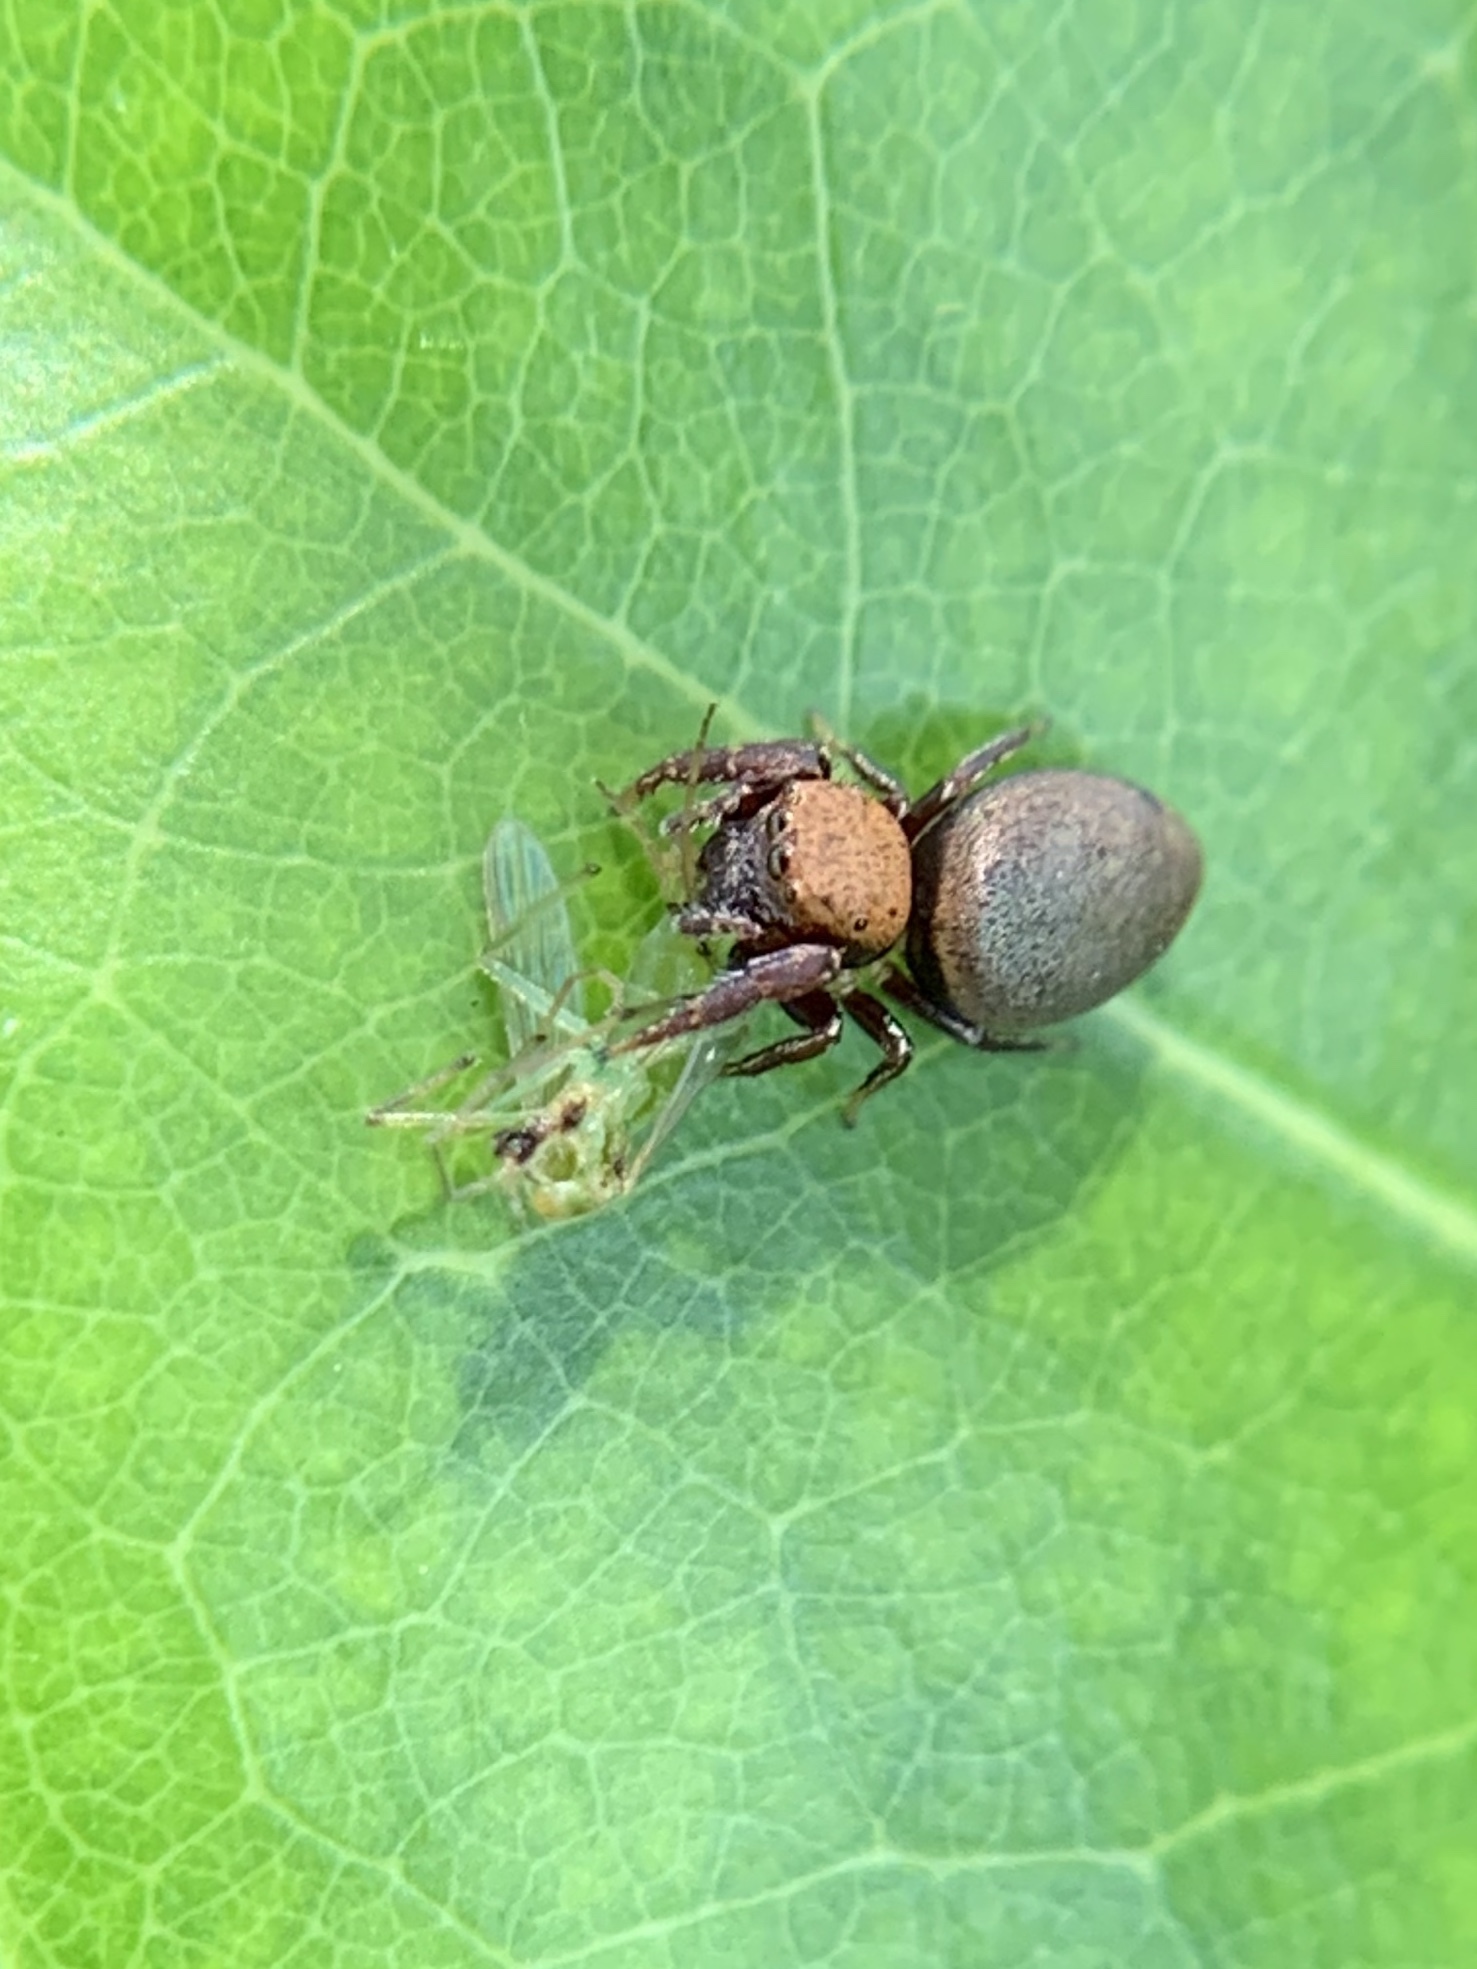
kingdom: Animalia
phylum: Arthropoda
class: Arachnida
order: Araneae
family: Salticidae
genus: Beata
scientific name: Beata wickhami
